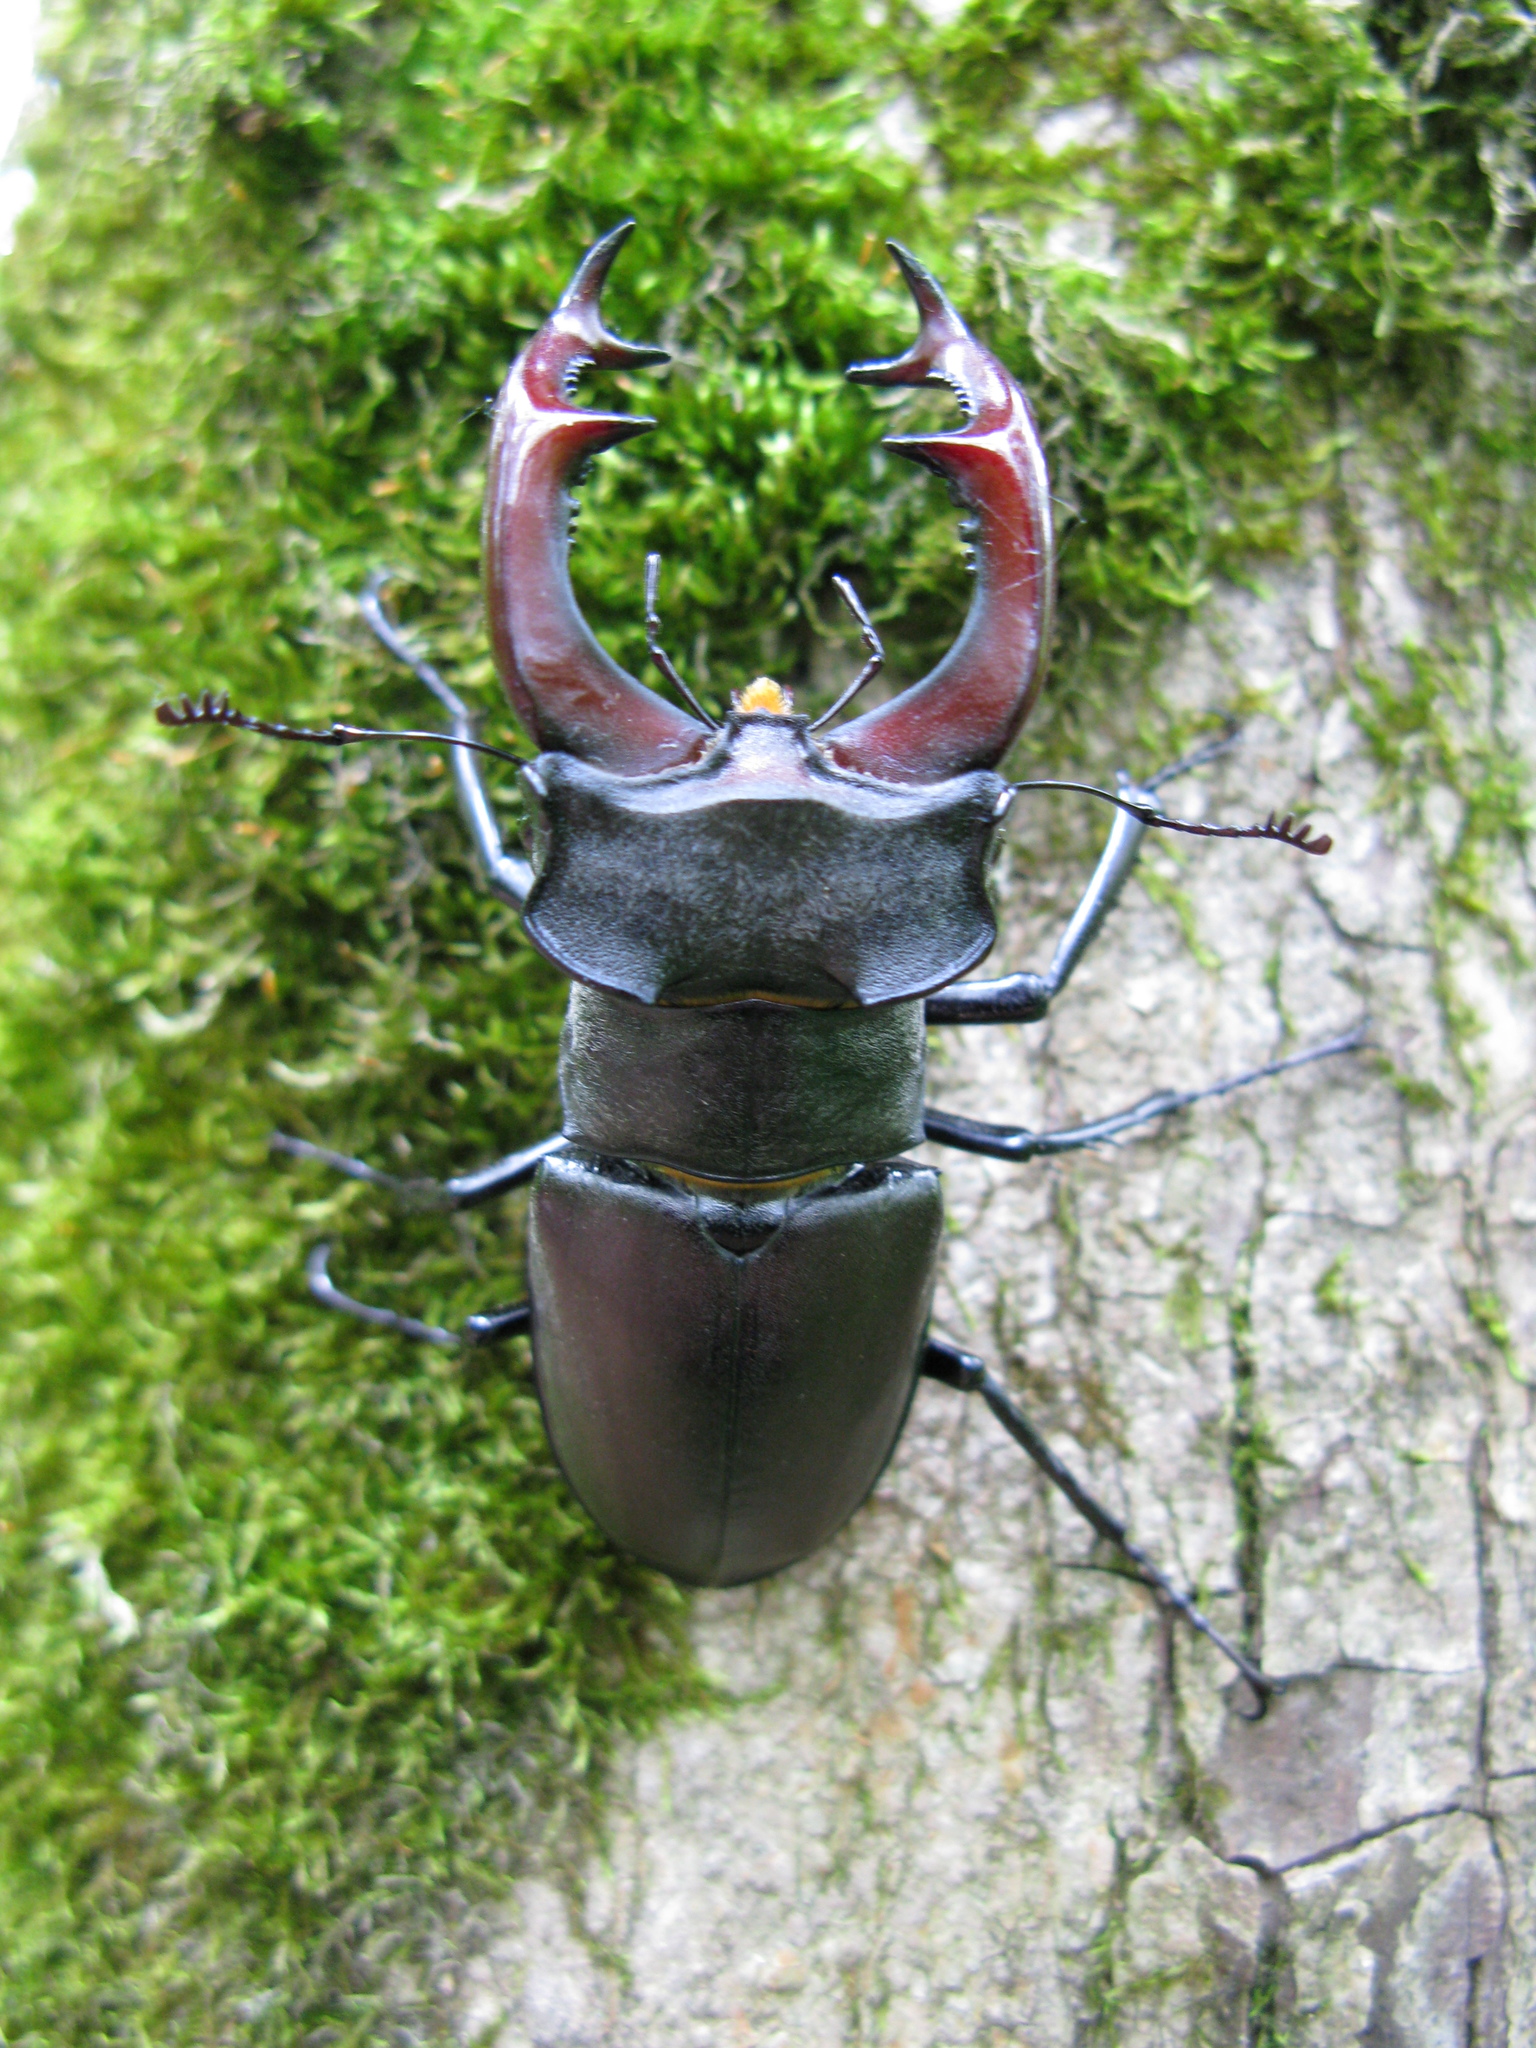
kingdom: Animalia
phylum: Arthropoda
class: Insecta
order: Coleoptera
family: Lucanidae
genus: Lucanus
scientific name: Lucanus cervus
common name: Stag beetle
